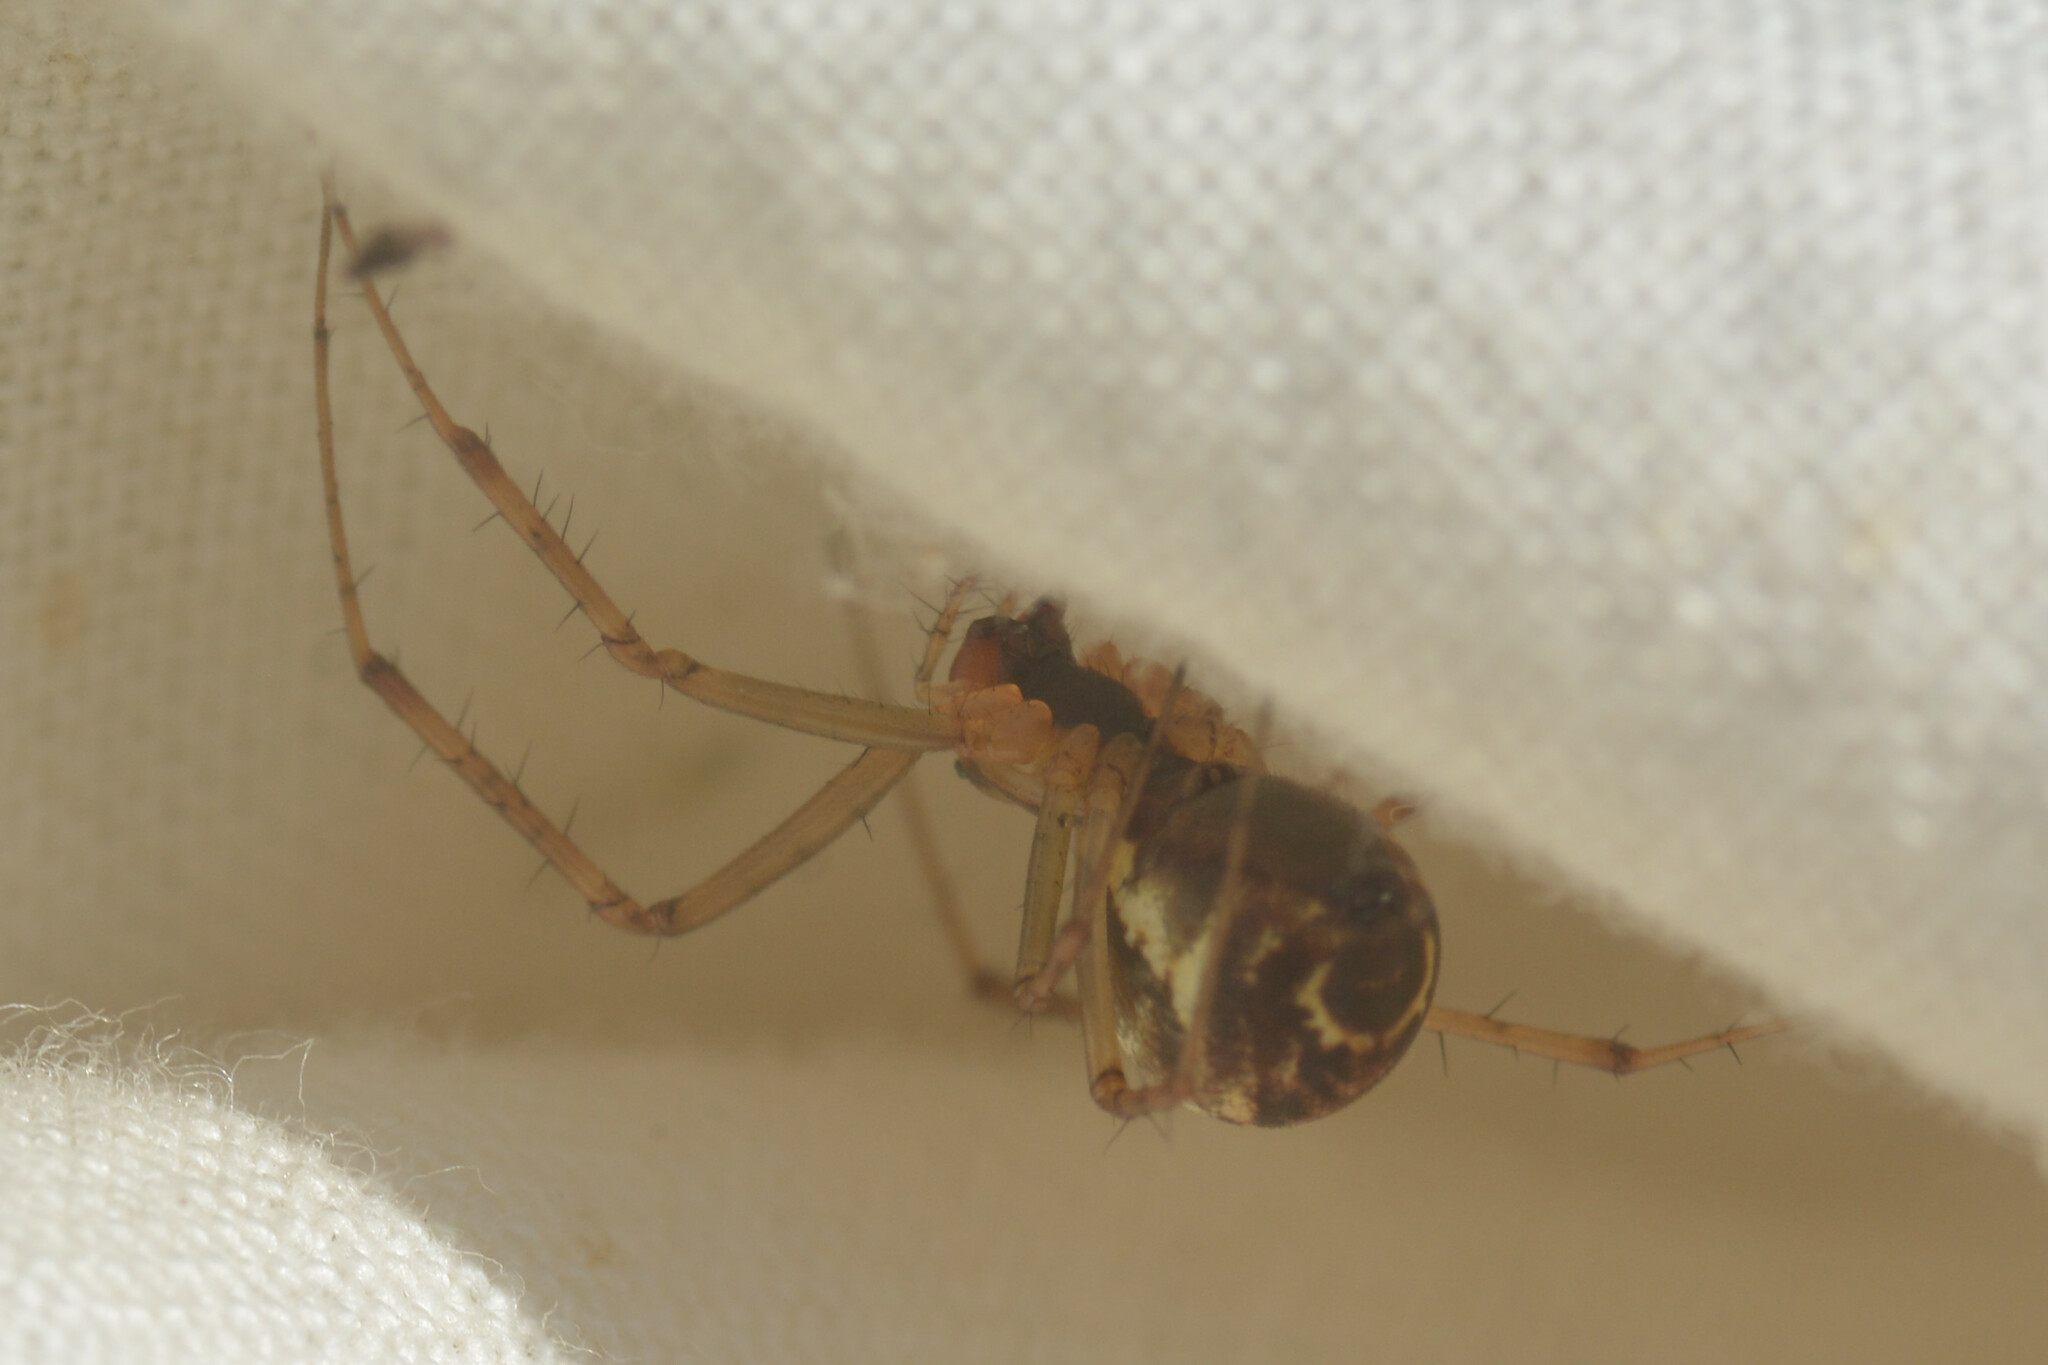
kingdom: Animalia
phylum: Arthropoda
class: Arachnida
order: Araneae
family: Linyphiidae
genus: Linyphia
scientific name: Linyphia triangularis
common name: Money spider
